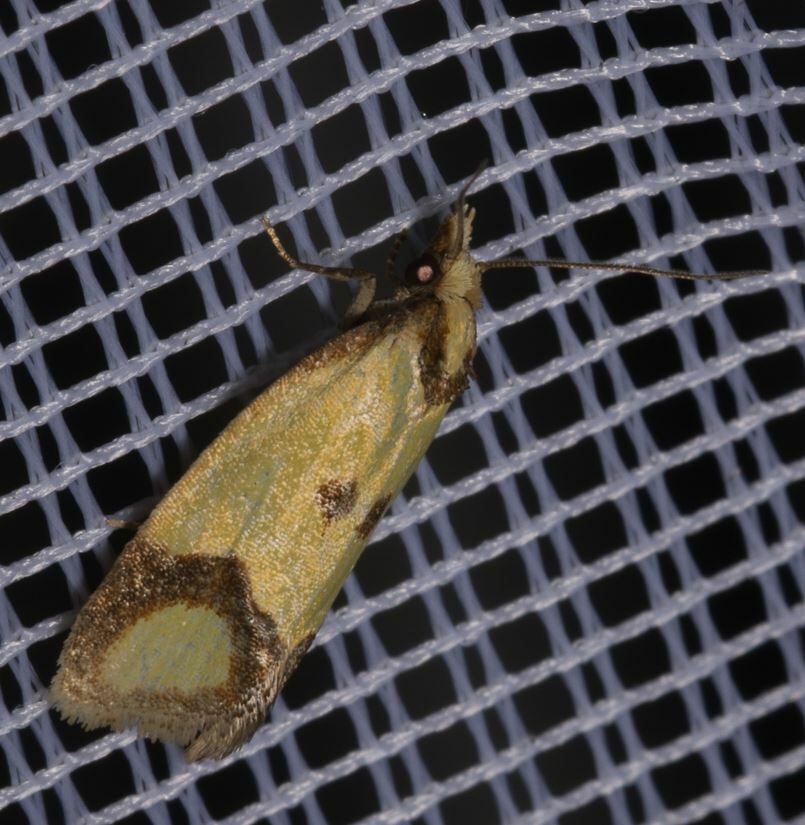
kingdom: Animalia
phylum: Arthropoda
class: Insecta
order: Lepidoptera
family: Tortricidae
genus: Agapeta
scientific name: Agapeta zoegana
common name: Sulfur knapweed root moth
